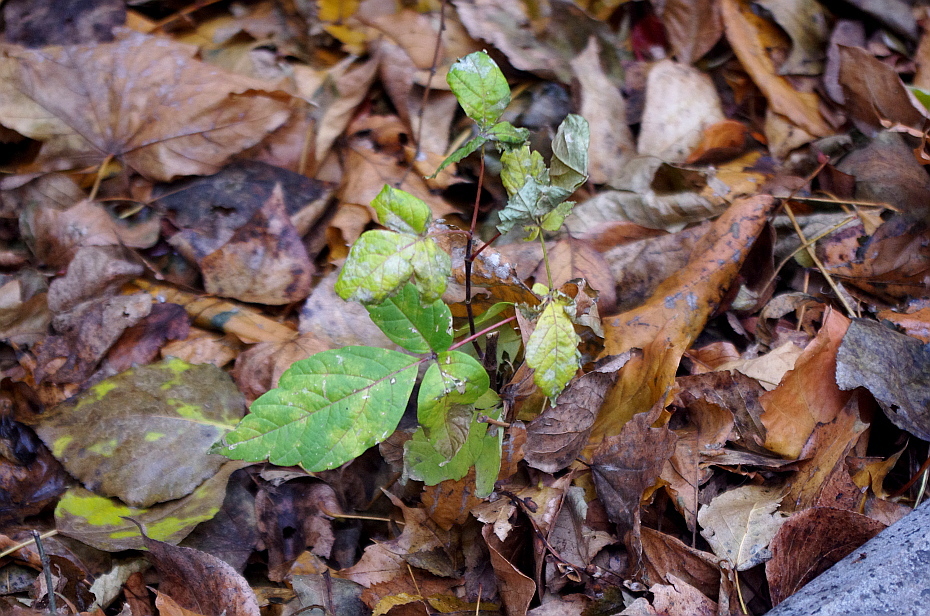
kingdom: Plantae
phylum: Tracheophyta
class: Magnoliopsida
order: Sapindales
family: Sapindaceae
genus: Acer
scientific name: Acer negundo
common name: Ashleaf maple
